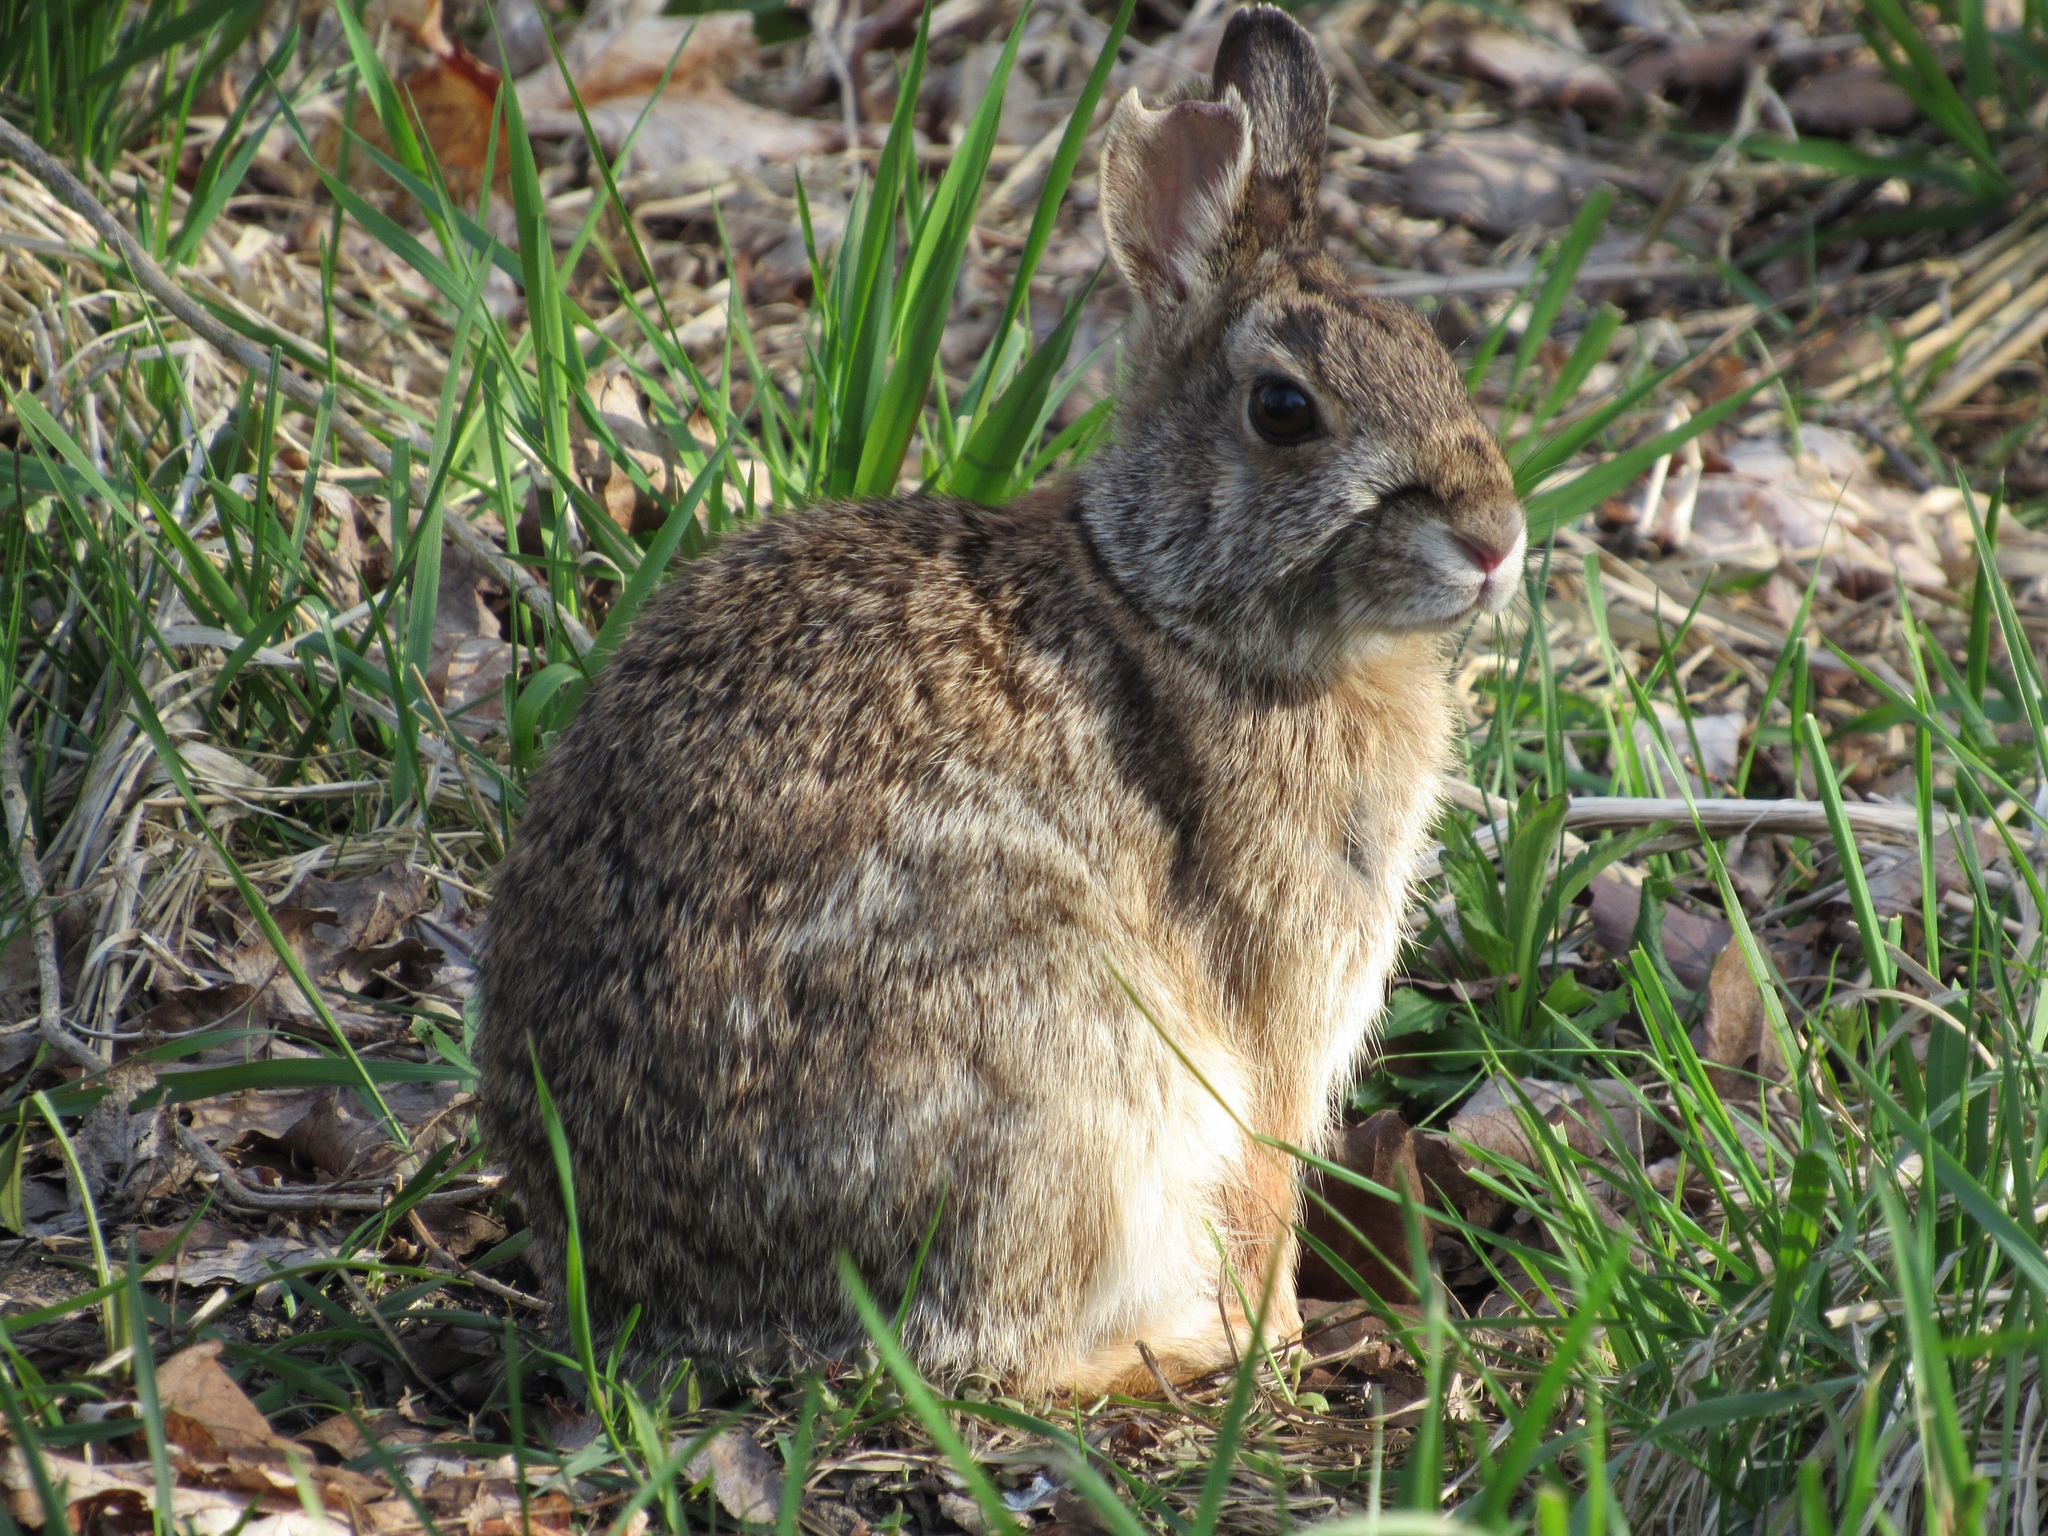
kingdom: Animalia
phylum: Chordata
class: Mammalia
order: Lagomorpha
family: Leporidae
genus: Sylvilagus
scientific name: Sylvilagus floridanus
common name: Eastern cottontail
